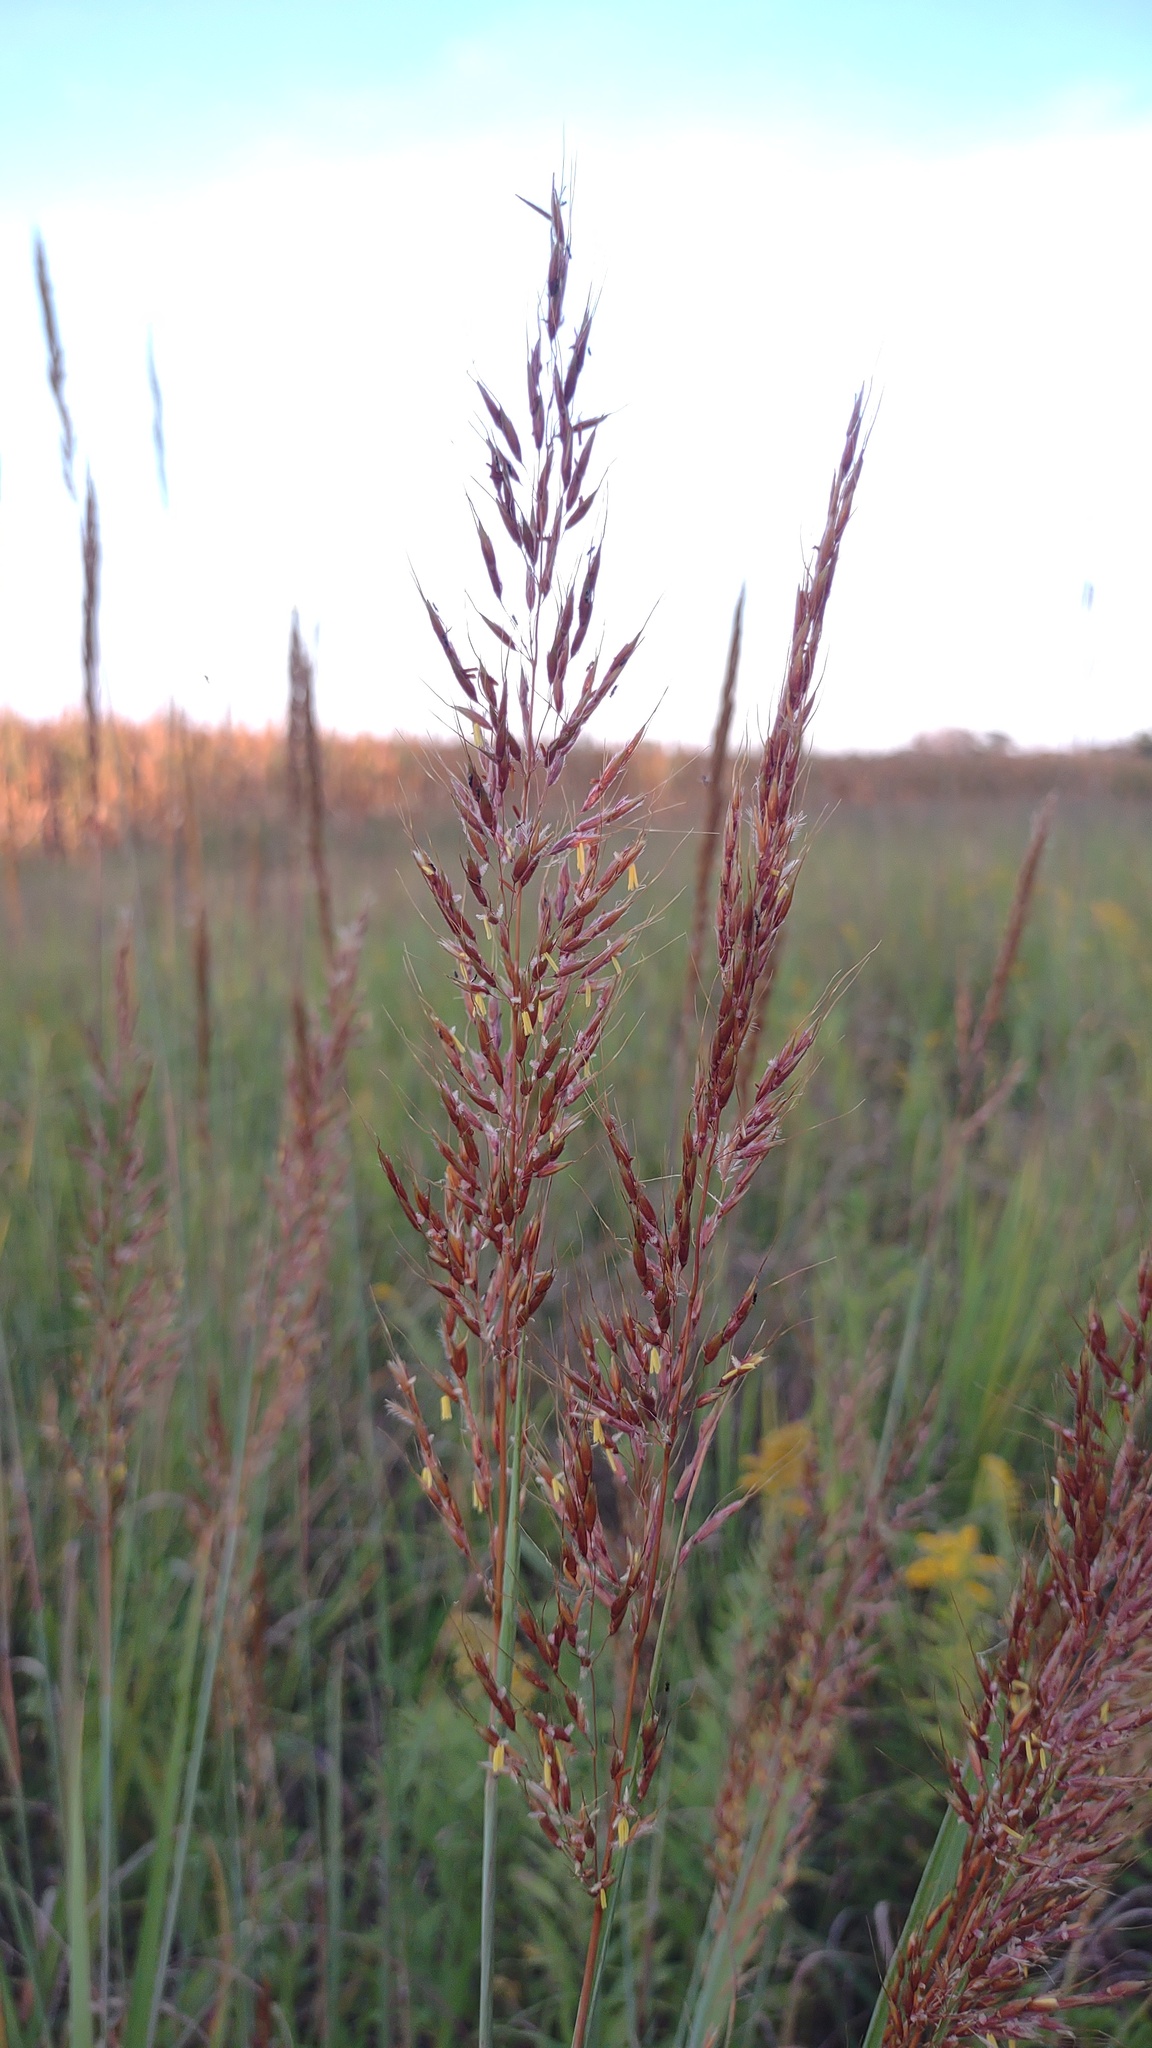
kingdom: Plantae
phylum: Tracheophyta
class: Liliopsida
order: Poales
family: Poaceae
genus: Sorghastrum
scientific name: Sorghastrum nutans
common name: Indian grass
